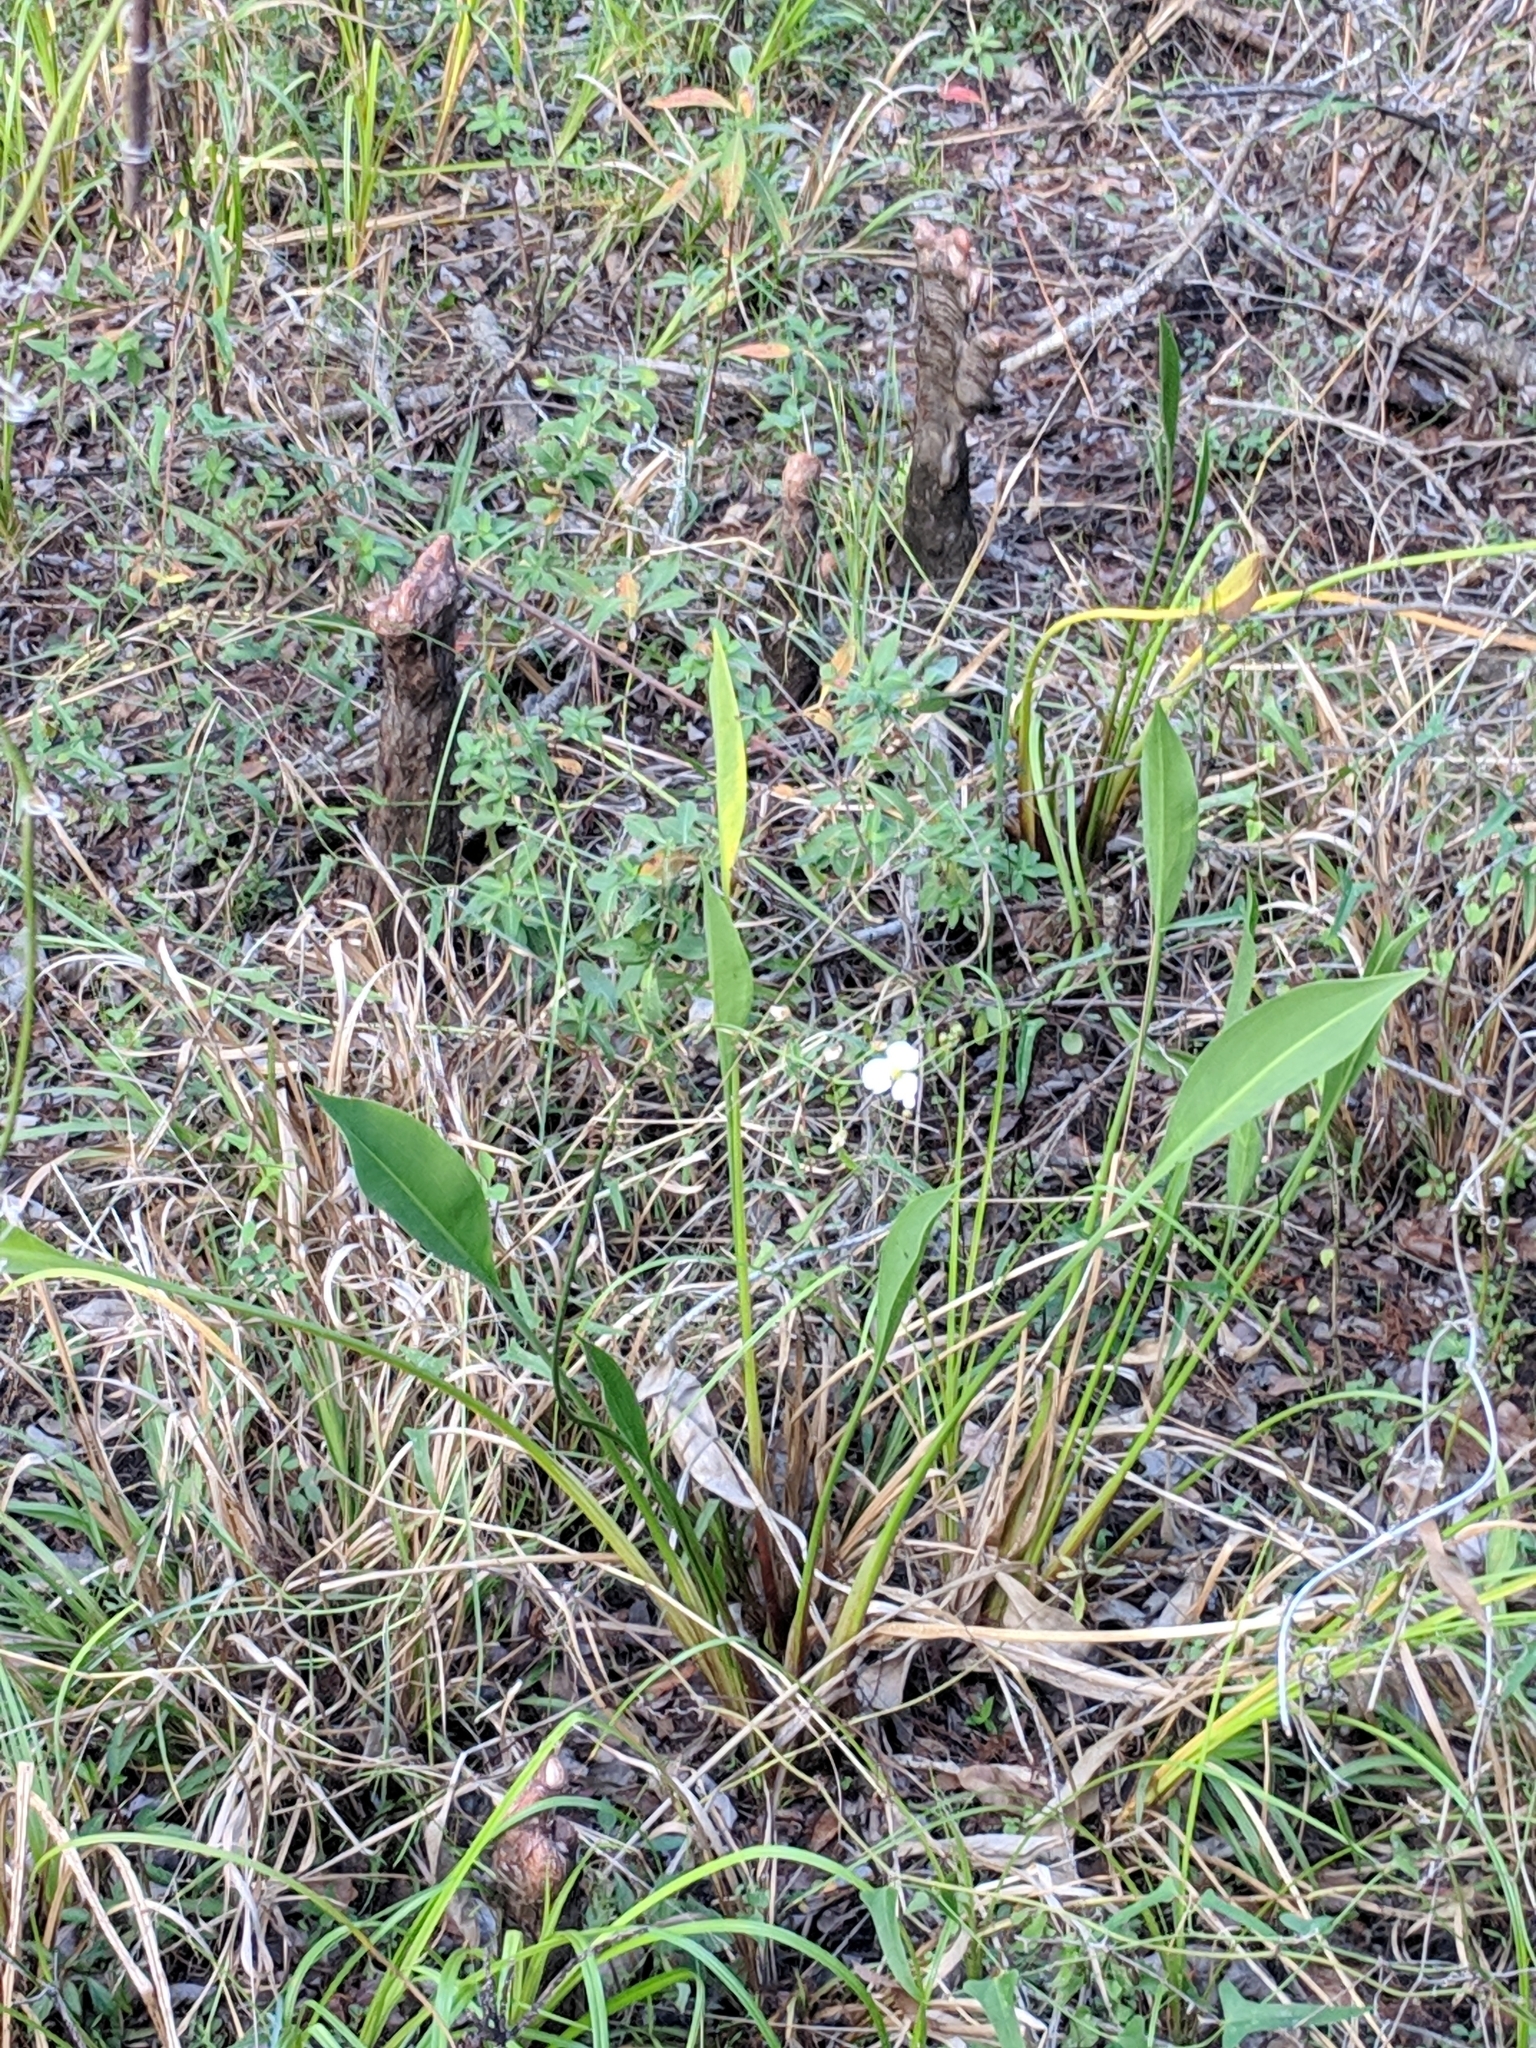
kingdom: Plantae
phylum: Tracheophyta
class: Liliopsida
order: Alismatales
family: Alismataceae
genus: Sagittaria
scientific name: Sagittaria lancifolia
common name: Lance-leaf arrowhead
